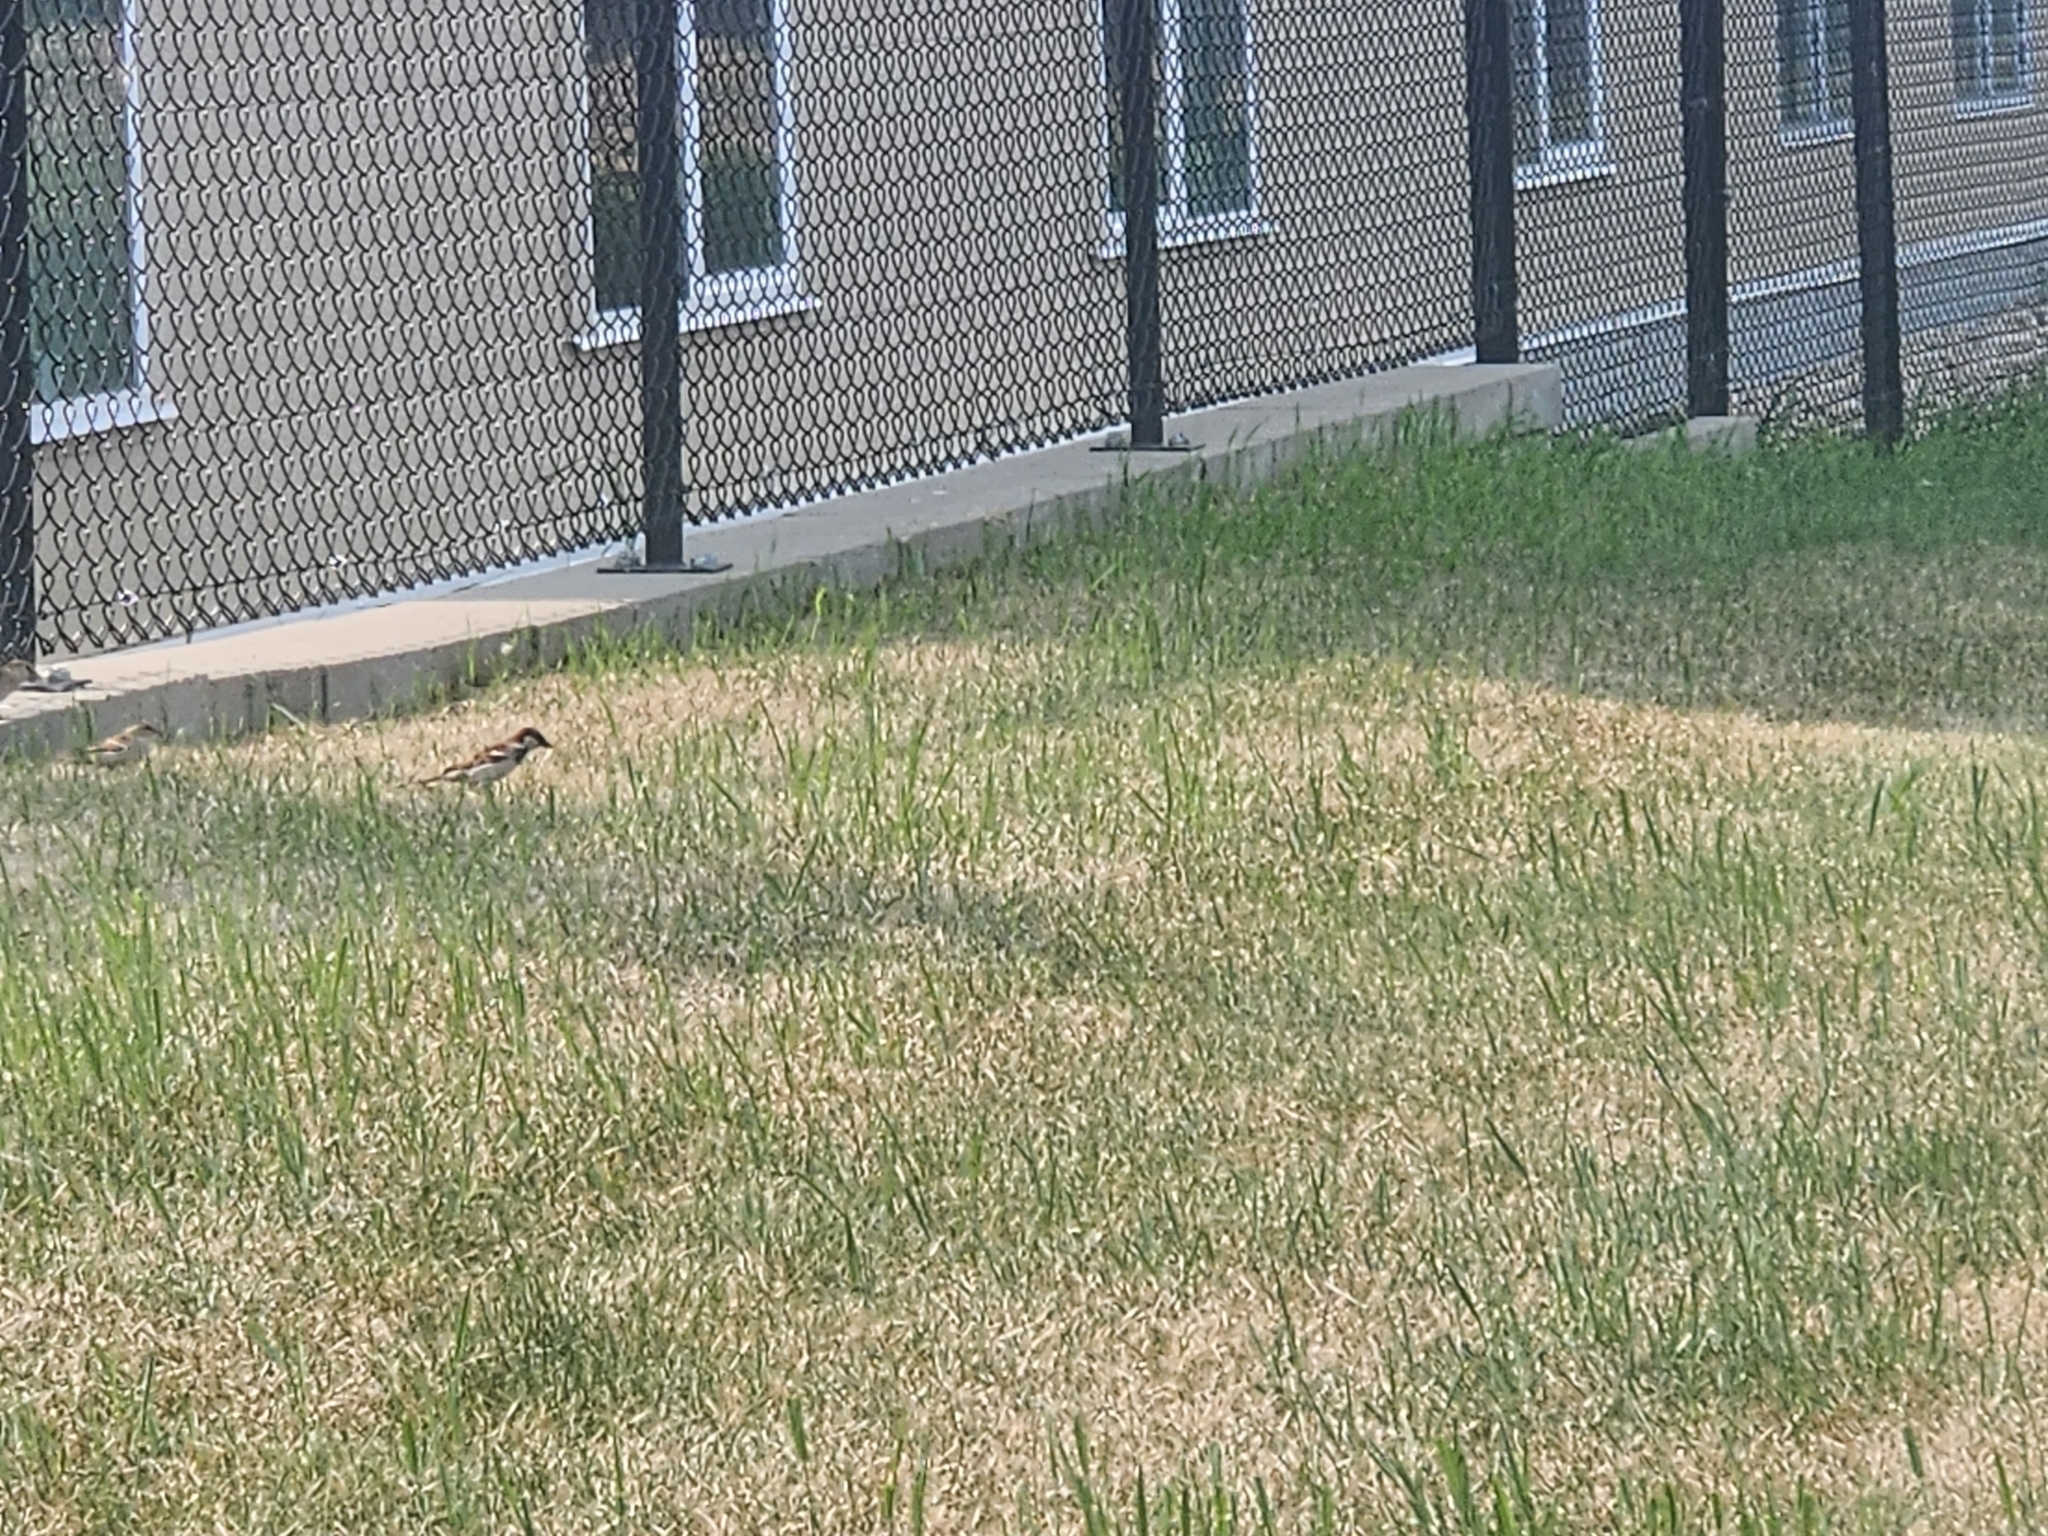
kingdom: Animalia
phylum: Chordata
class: Aves
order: Passeriformes
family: Passeridae
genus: Passer
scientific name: Passer domesticus
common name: House sparrow
